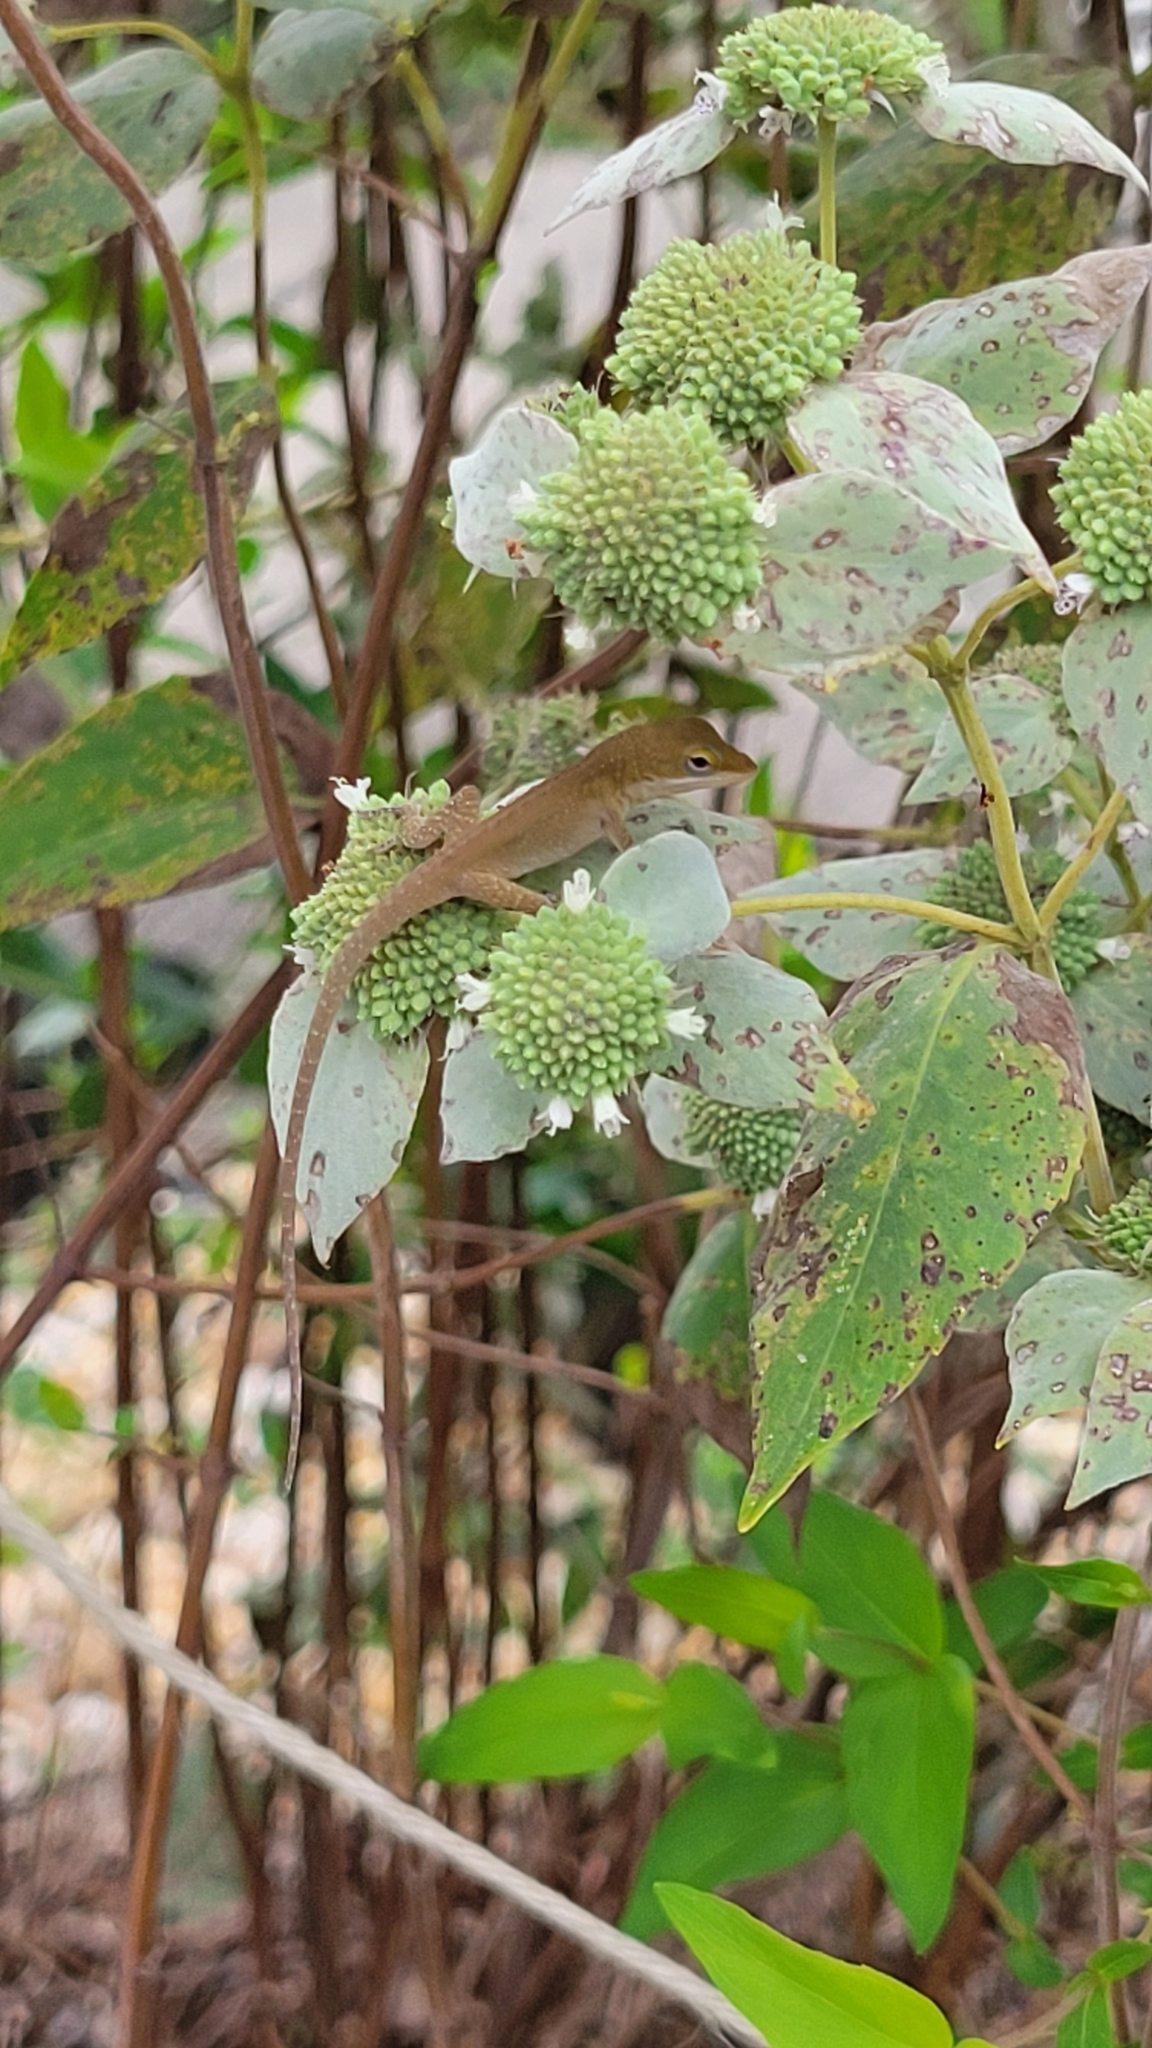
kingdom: Animalia
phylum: Chordata
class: Squamata
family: Dactyloidae
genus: Anolis
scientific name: Anolis carolinensis
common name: Green anole
